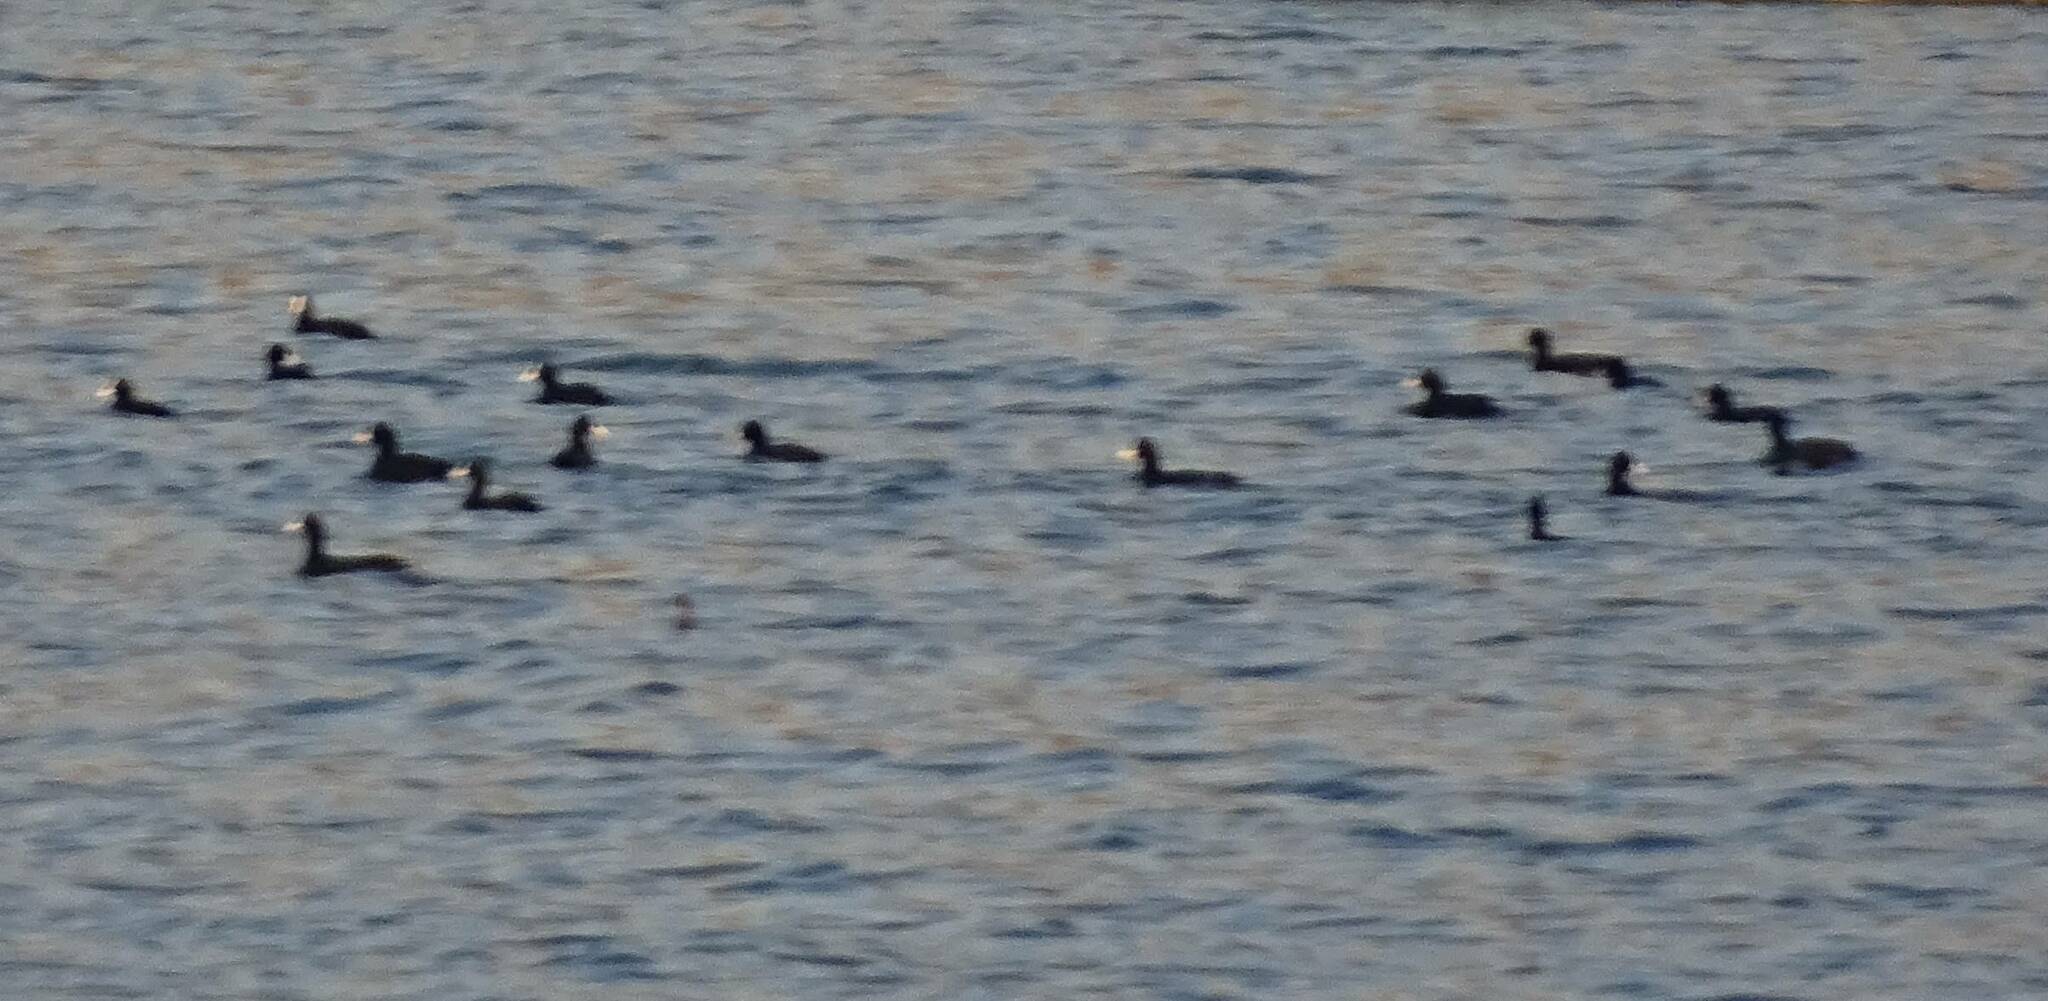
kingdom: Animalia
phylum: Chordata
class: Aves
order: Gruiformes
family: Rallidae
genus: Fulica
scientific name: Fulica atra
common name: Eurasian coot
